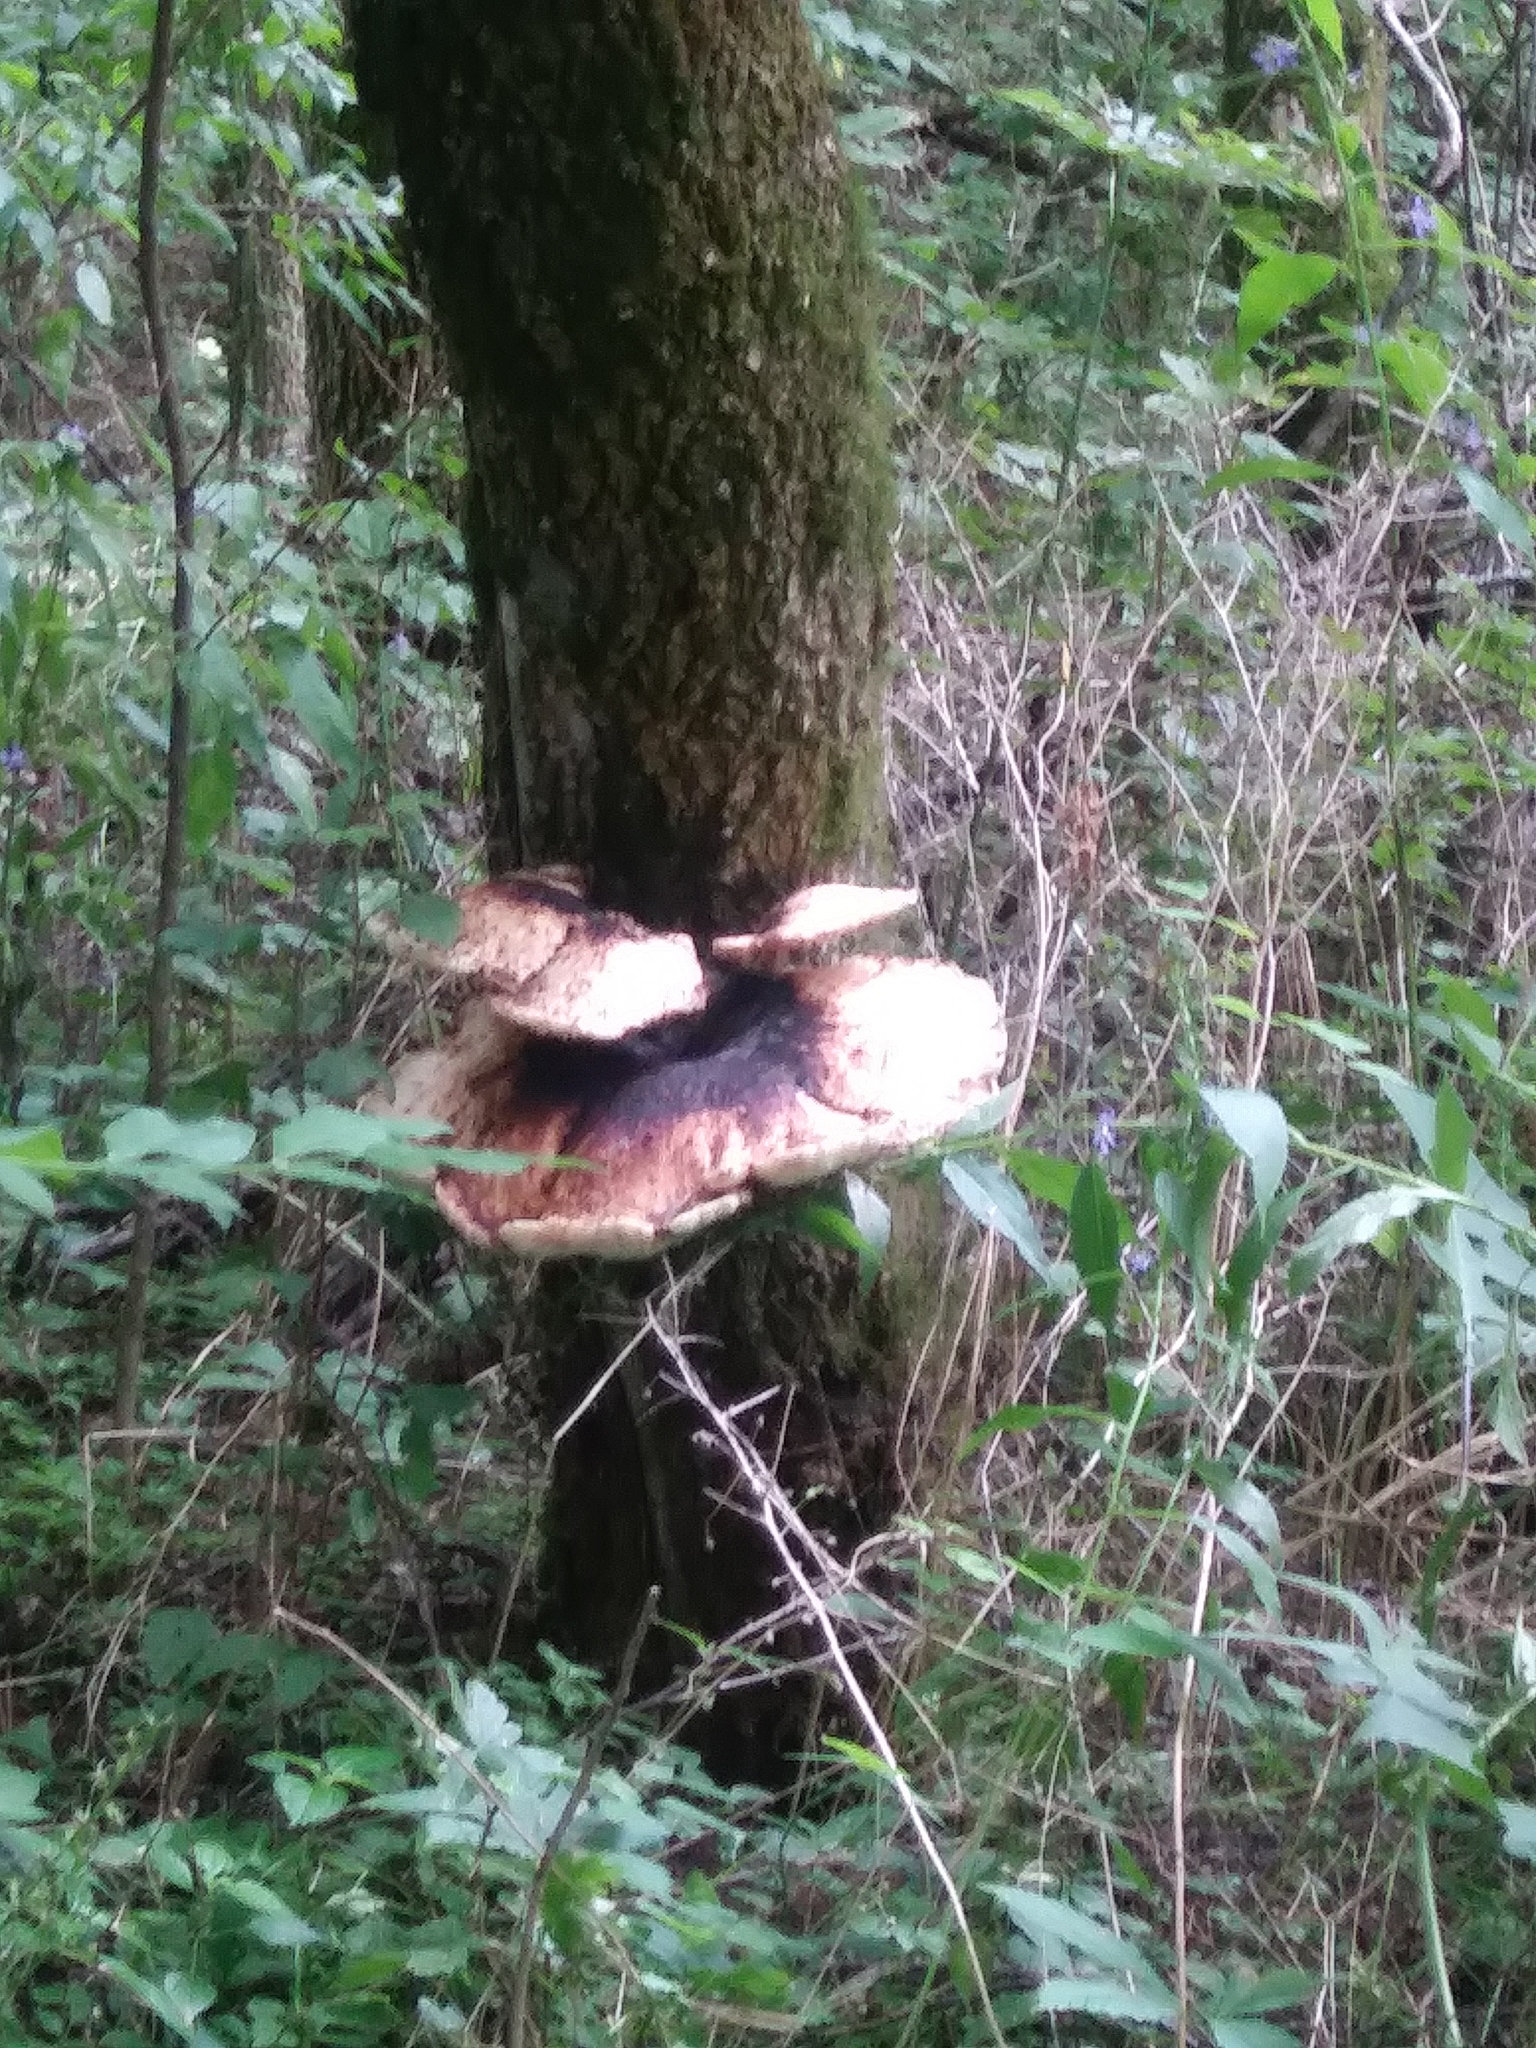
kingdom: Fungi
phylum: Basidiomycota
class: Agaricomycetes
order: Polyporales
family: Polyporaceae
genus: Cerioporus
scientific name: Cerioporus squamosus
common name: Dryad's saddle
